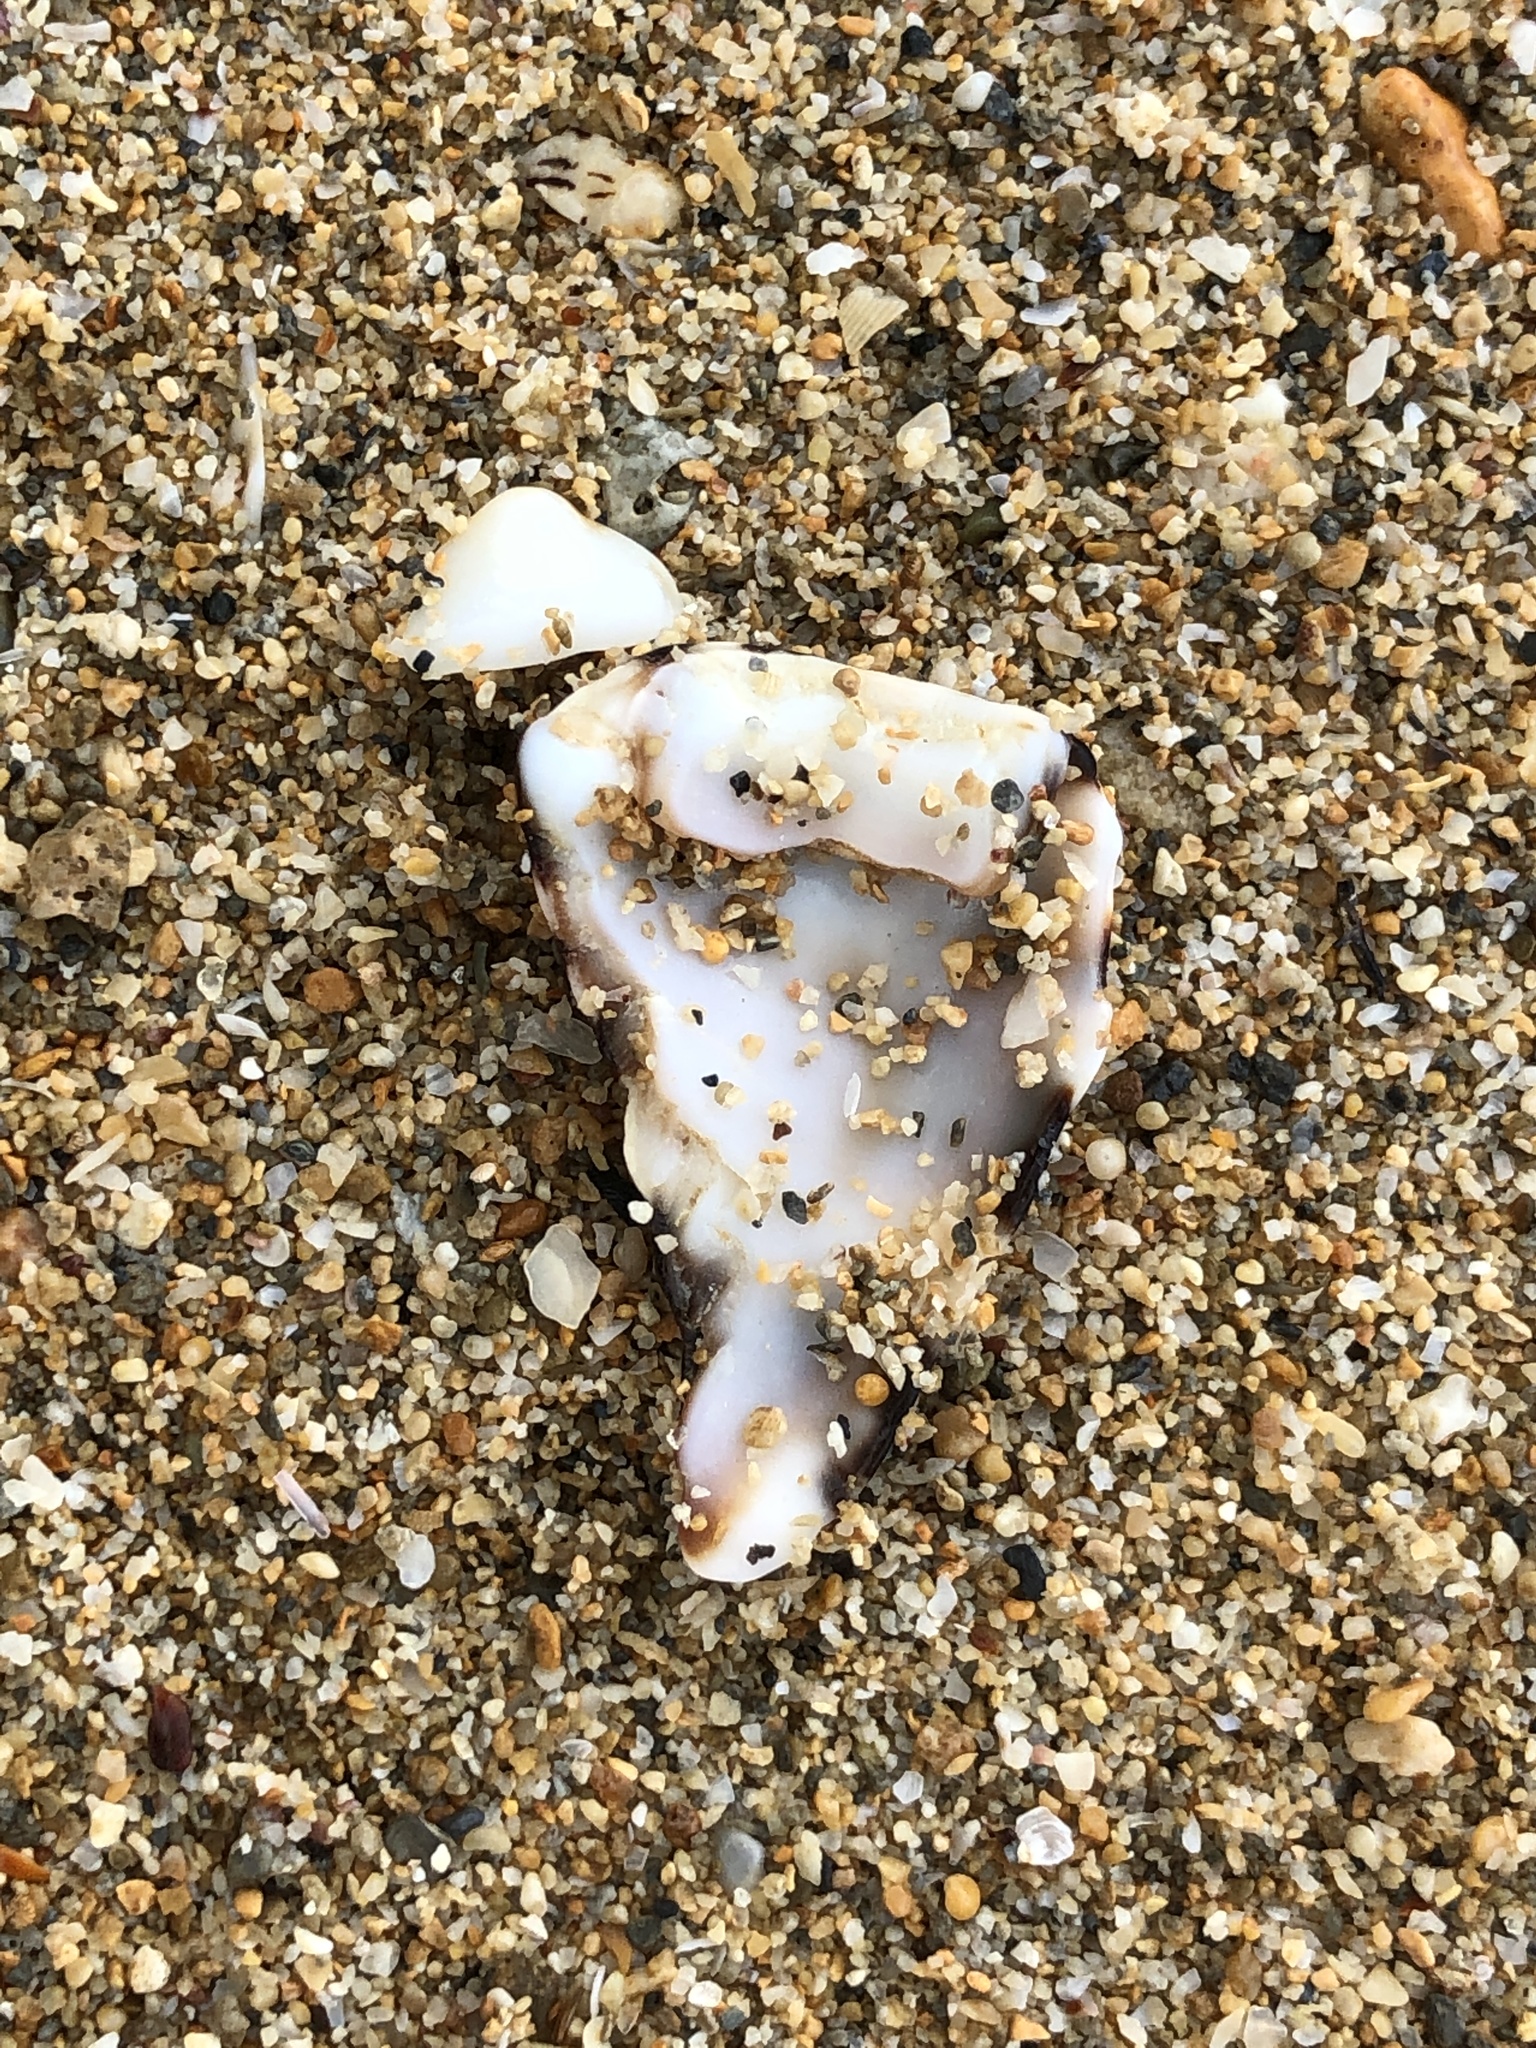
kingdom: Animalia
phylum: Mollusca
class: Gastropoda
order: Neogastropoda
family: Conidae
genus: Conus
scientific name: Conus ebraeus
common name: Hebrew cone
